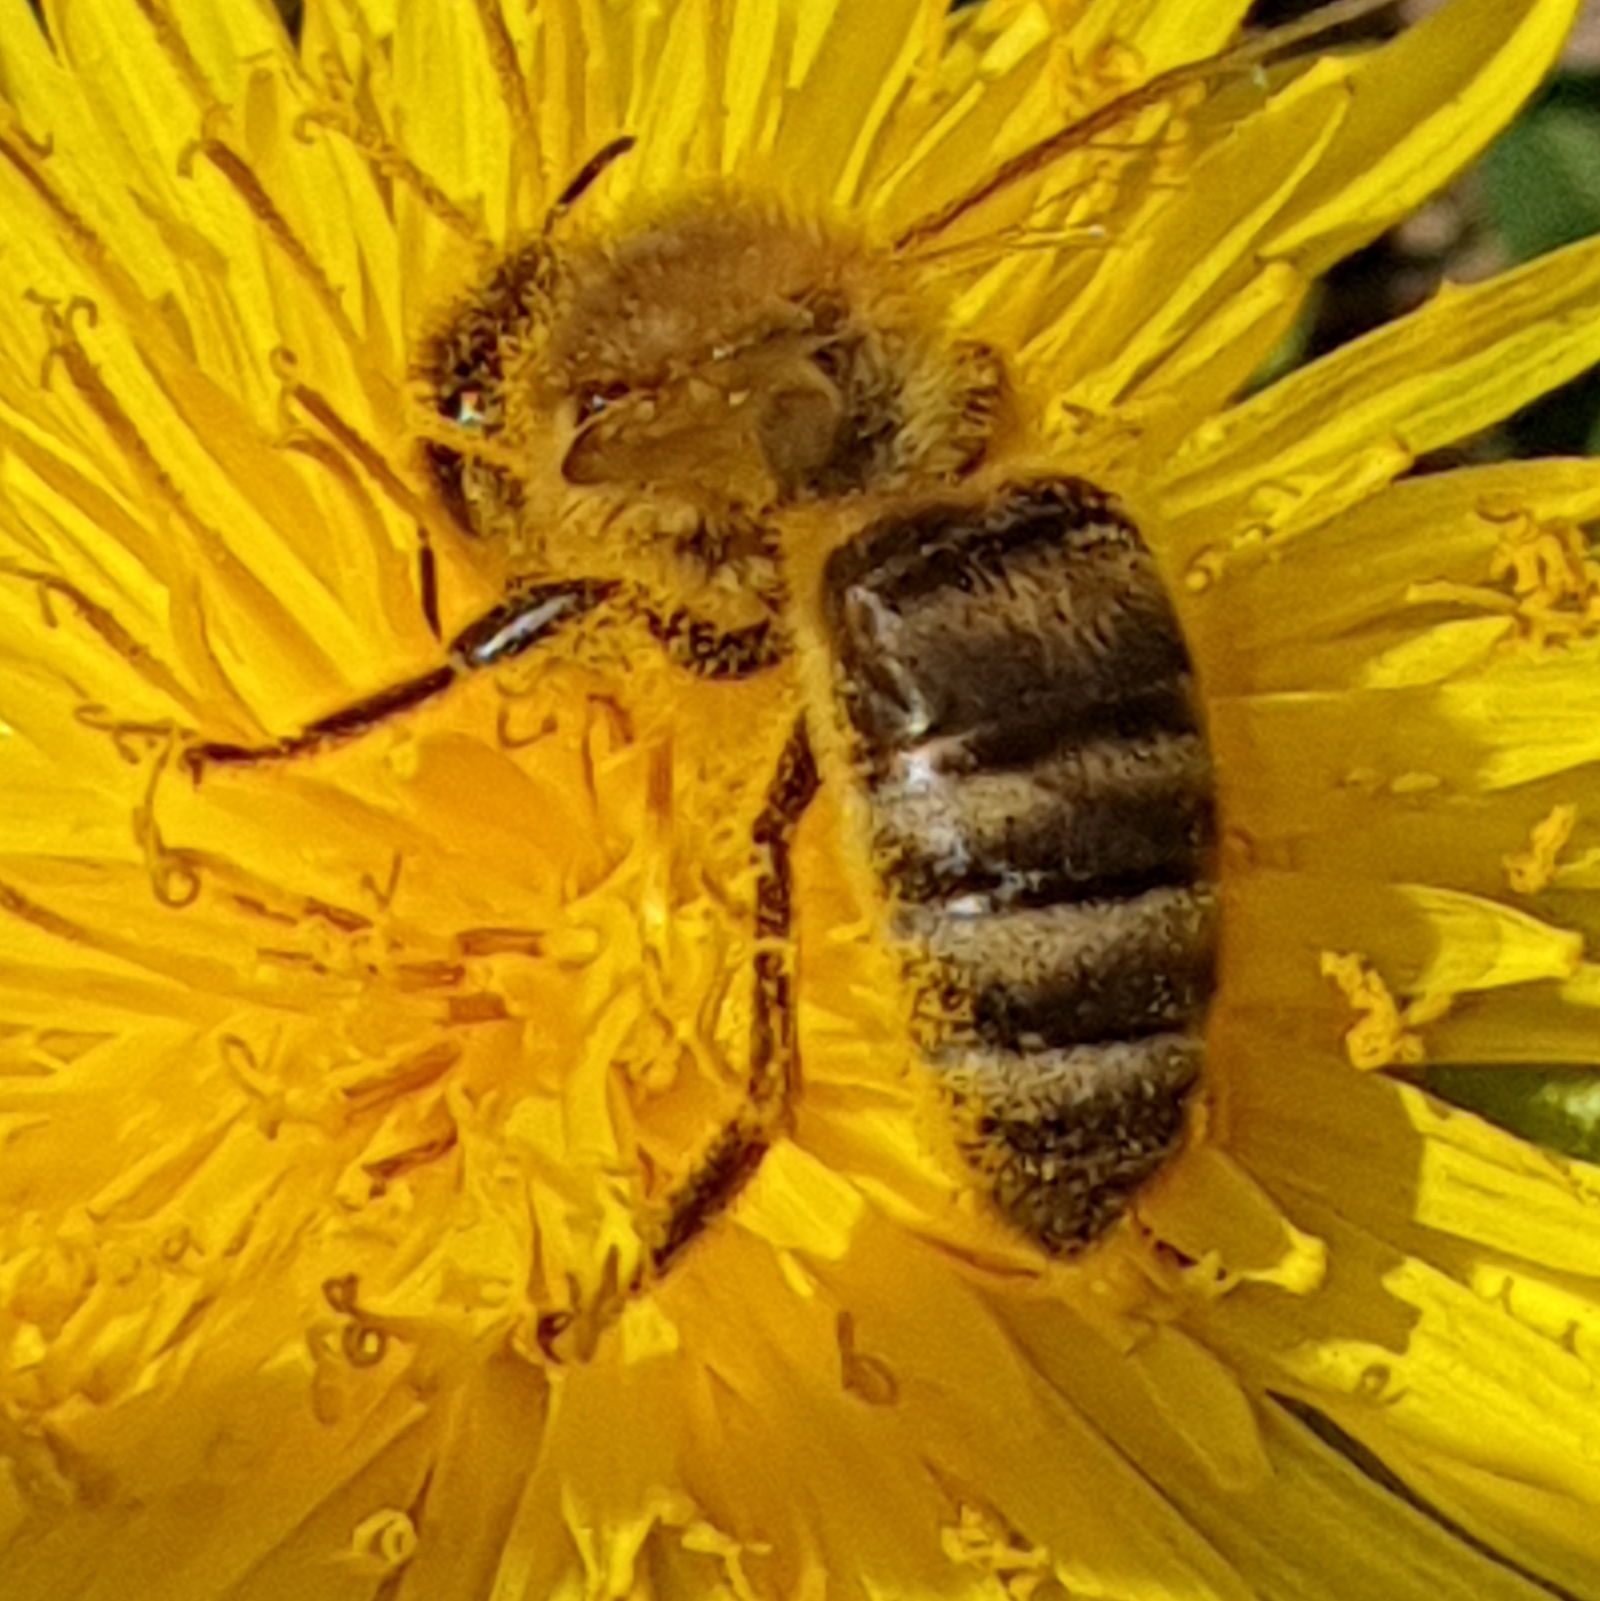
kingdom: Animalia
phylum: Arthropoda
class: Insecta
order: Hymenoptera
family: Apidae
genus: Apis
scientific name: Apis mellifera
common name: Honey bee
